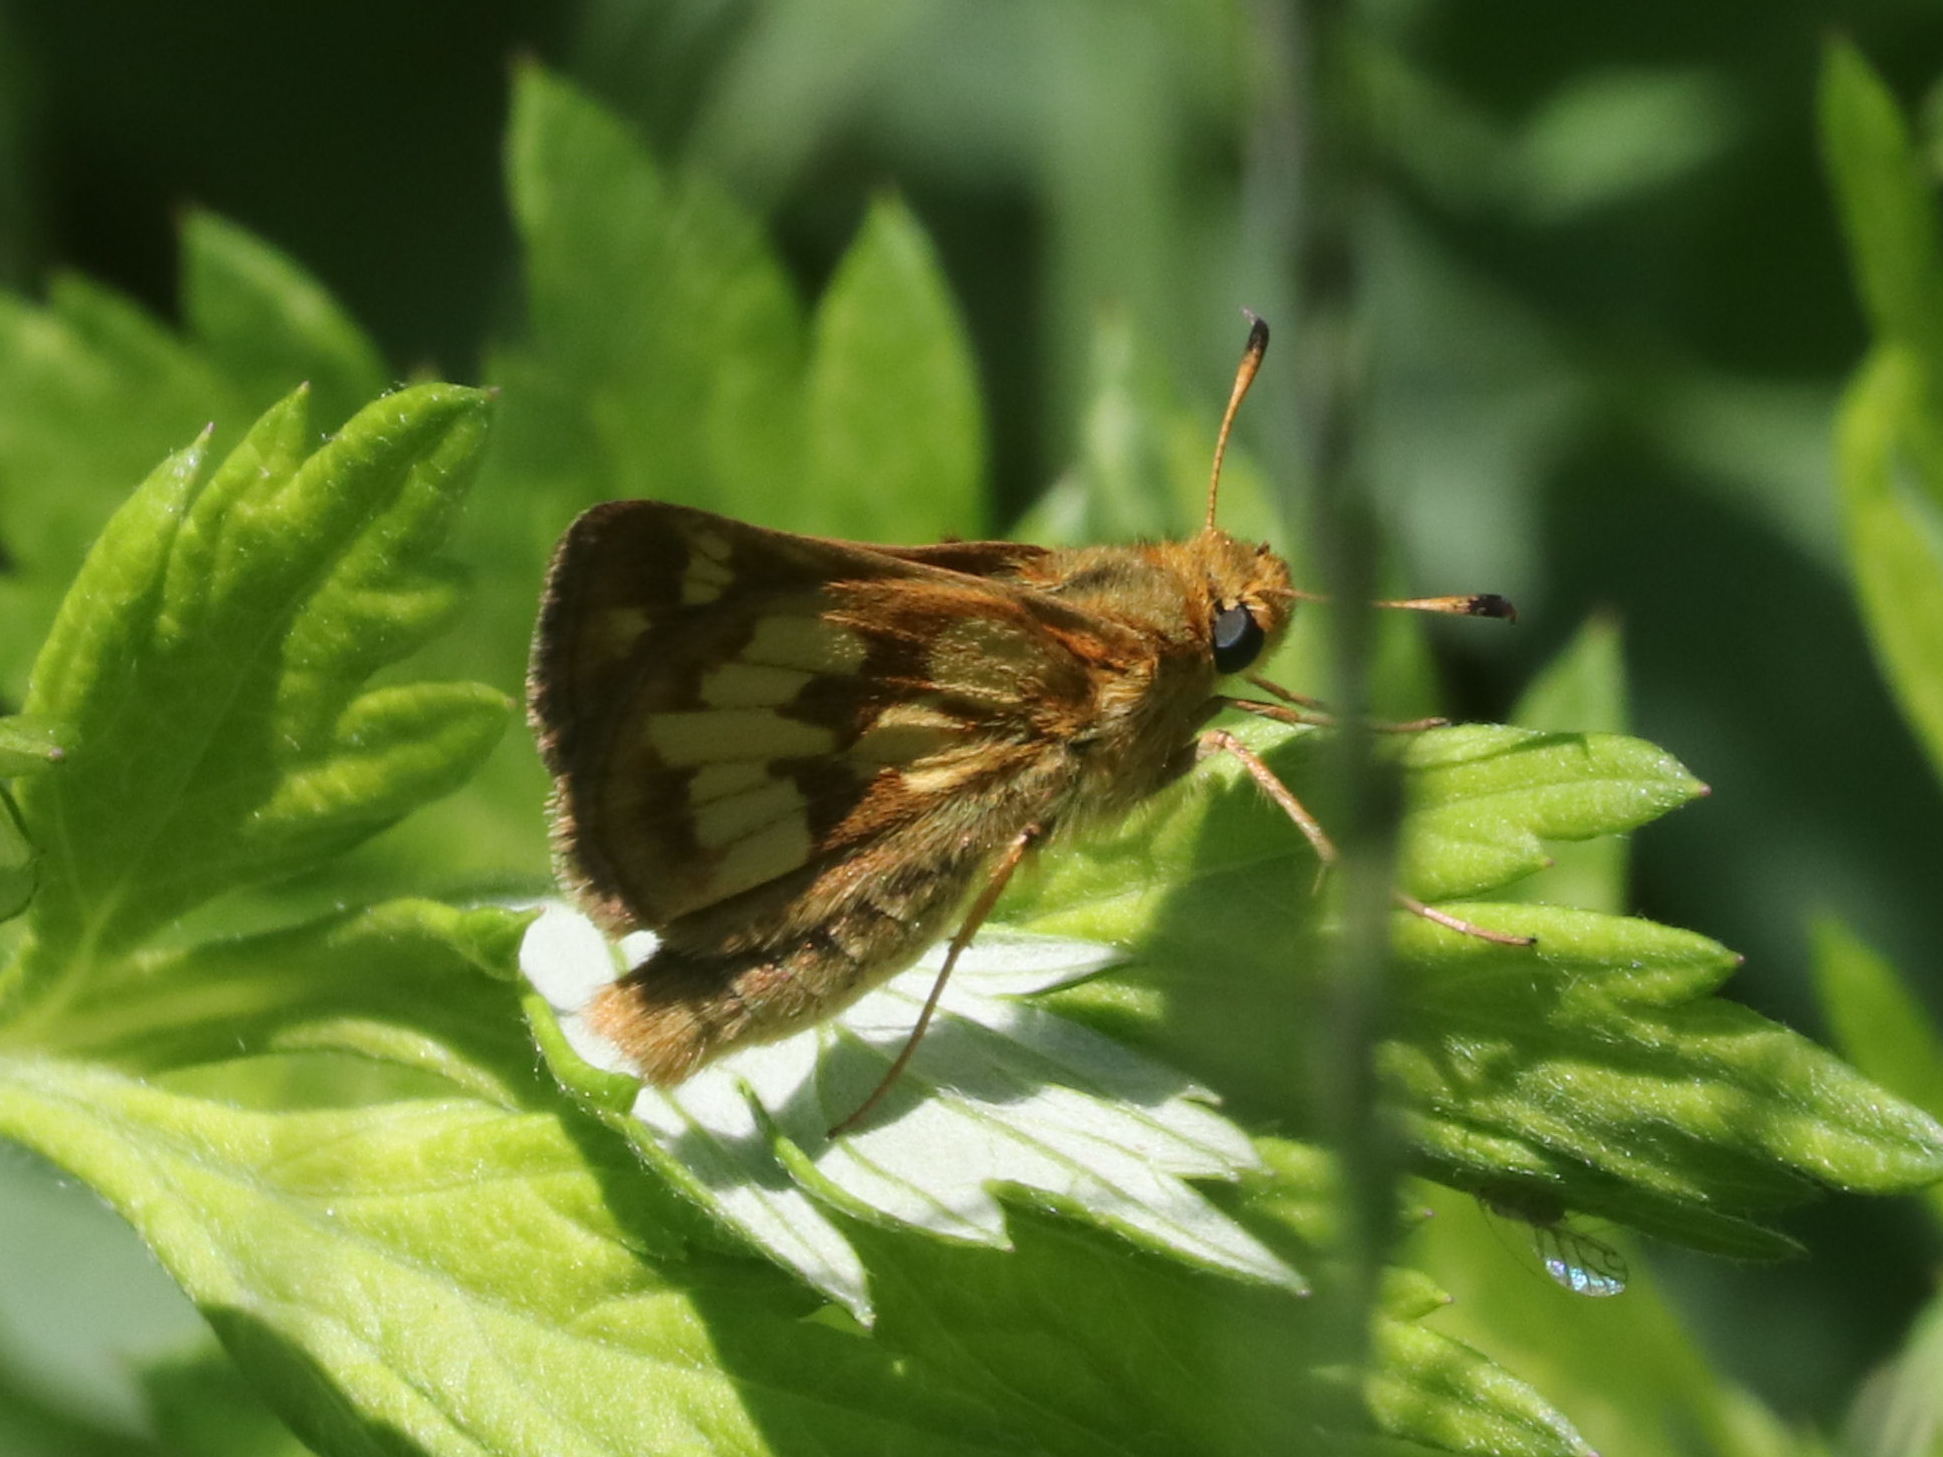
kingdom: Animalia
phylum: Arthropoda
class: Insecta
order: Lepidoptera
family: Hesperiidae
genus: Polites
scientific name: Polites coras
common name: Peck's skipper
